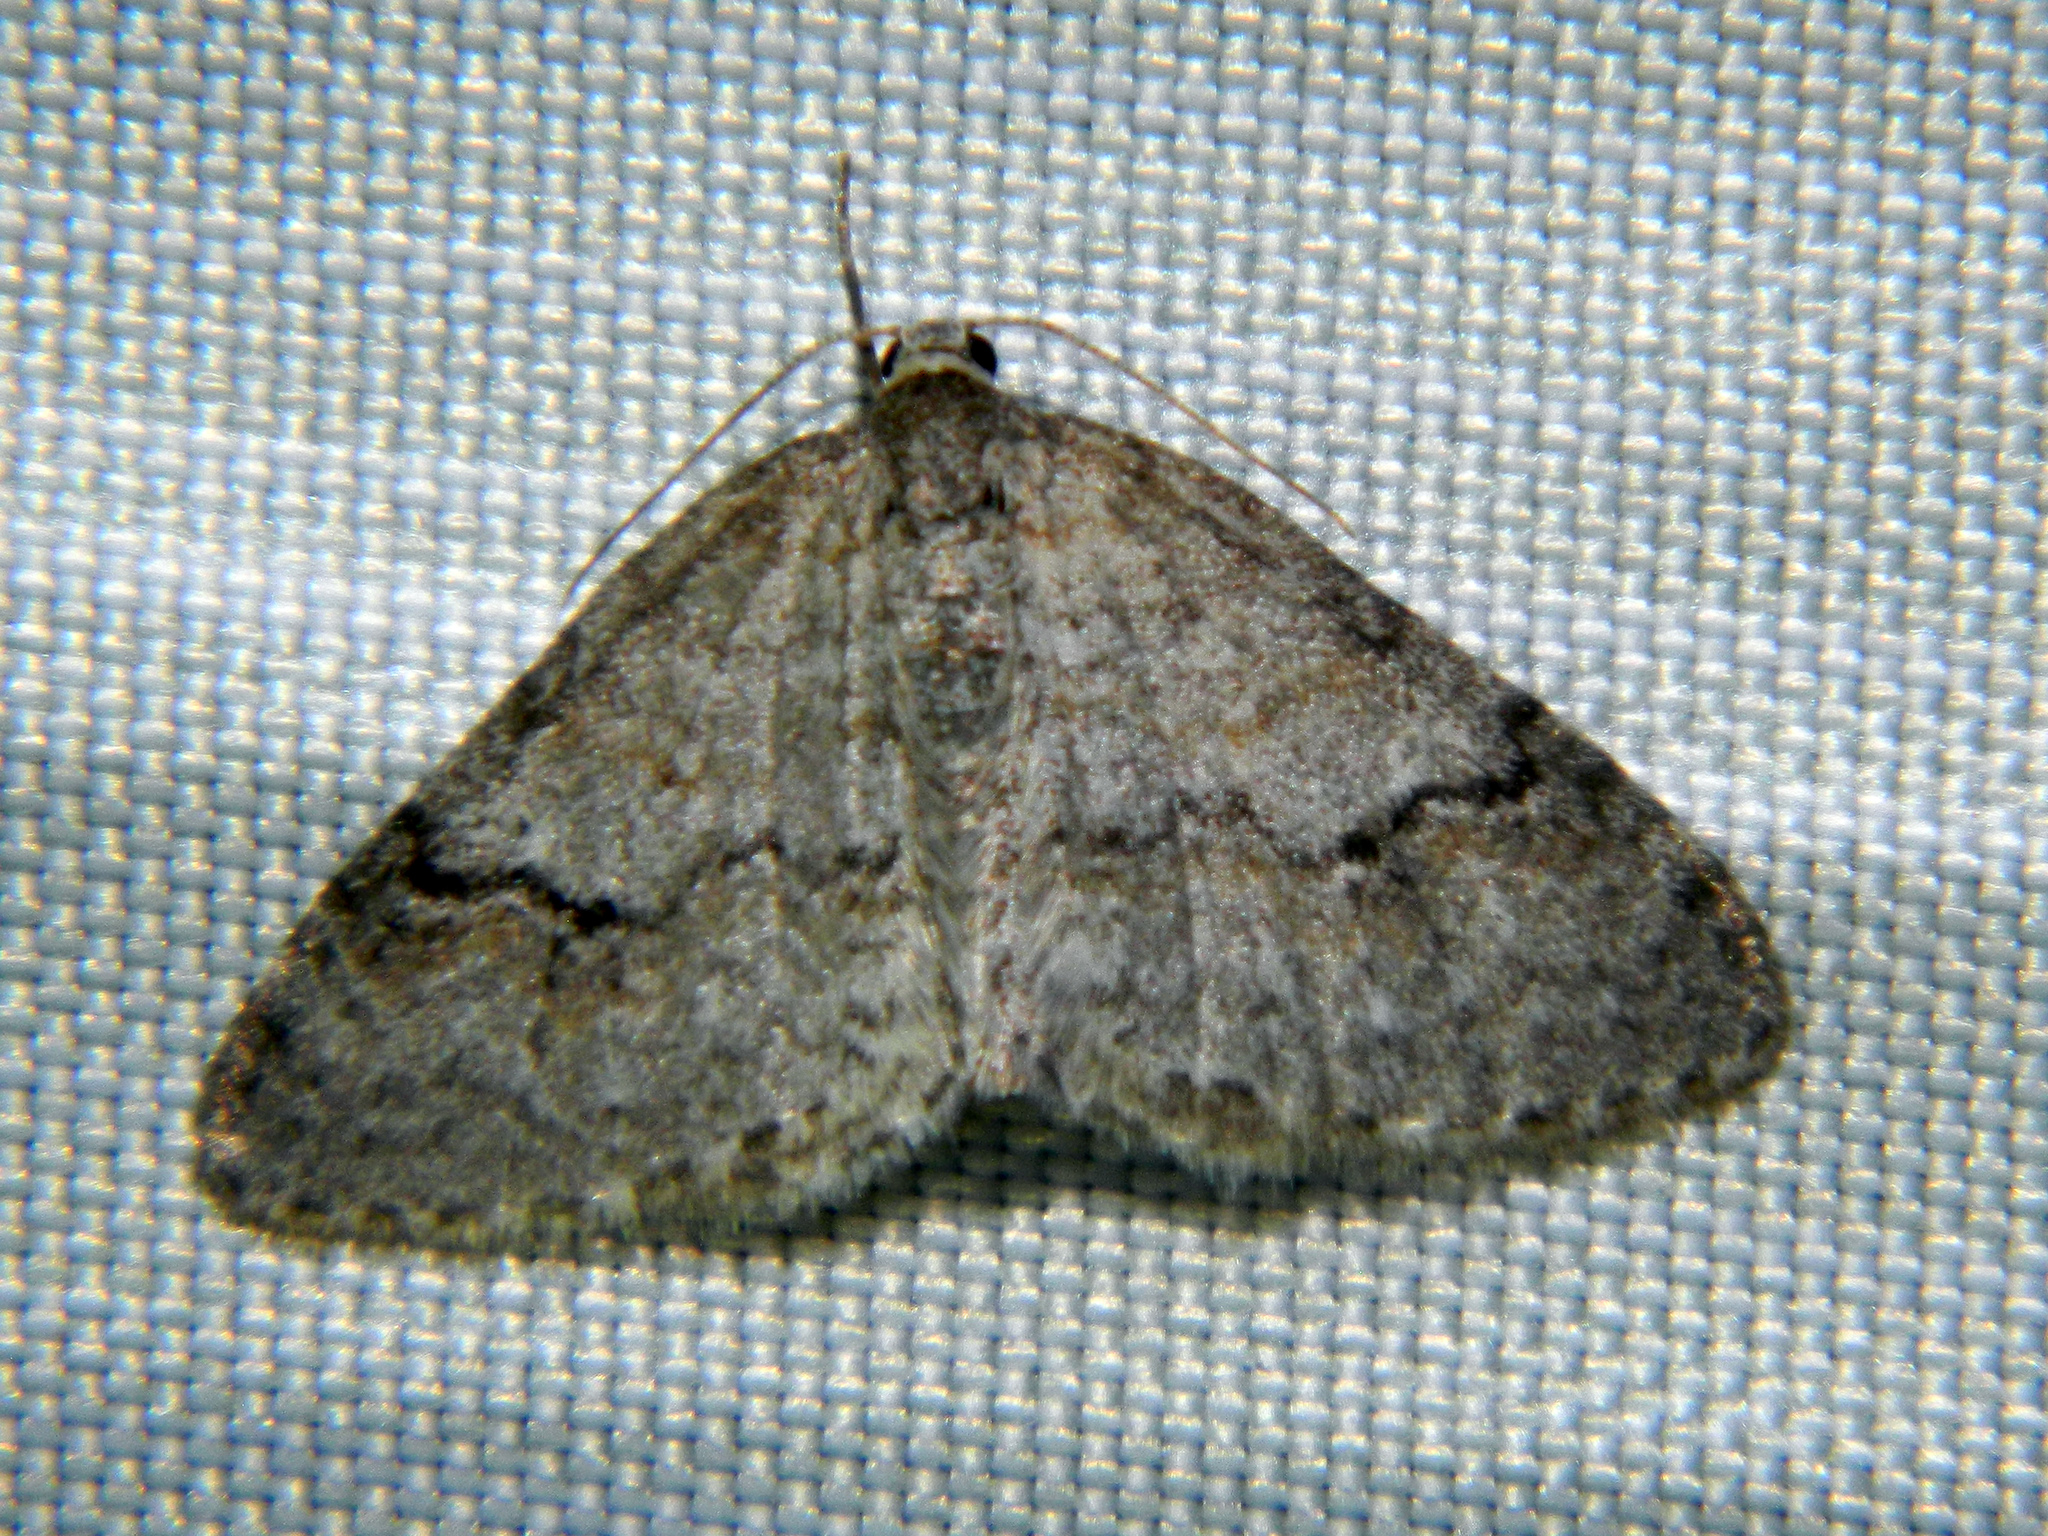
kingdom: Animalia
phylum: Arthropoda
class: Insecta
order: Lepidoptera
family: Geometridae
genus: Venusia
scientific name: Venusia comptaria
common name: Brown-shaded carpet
